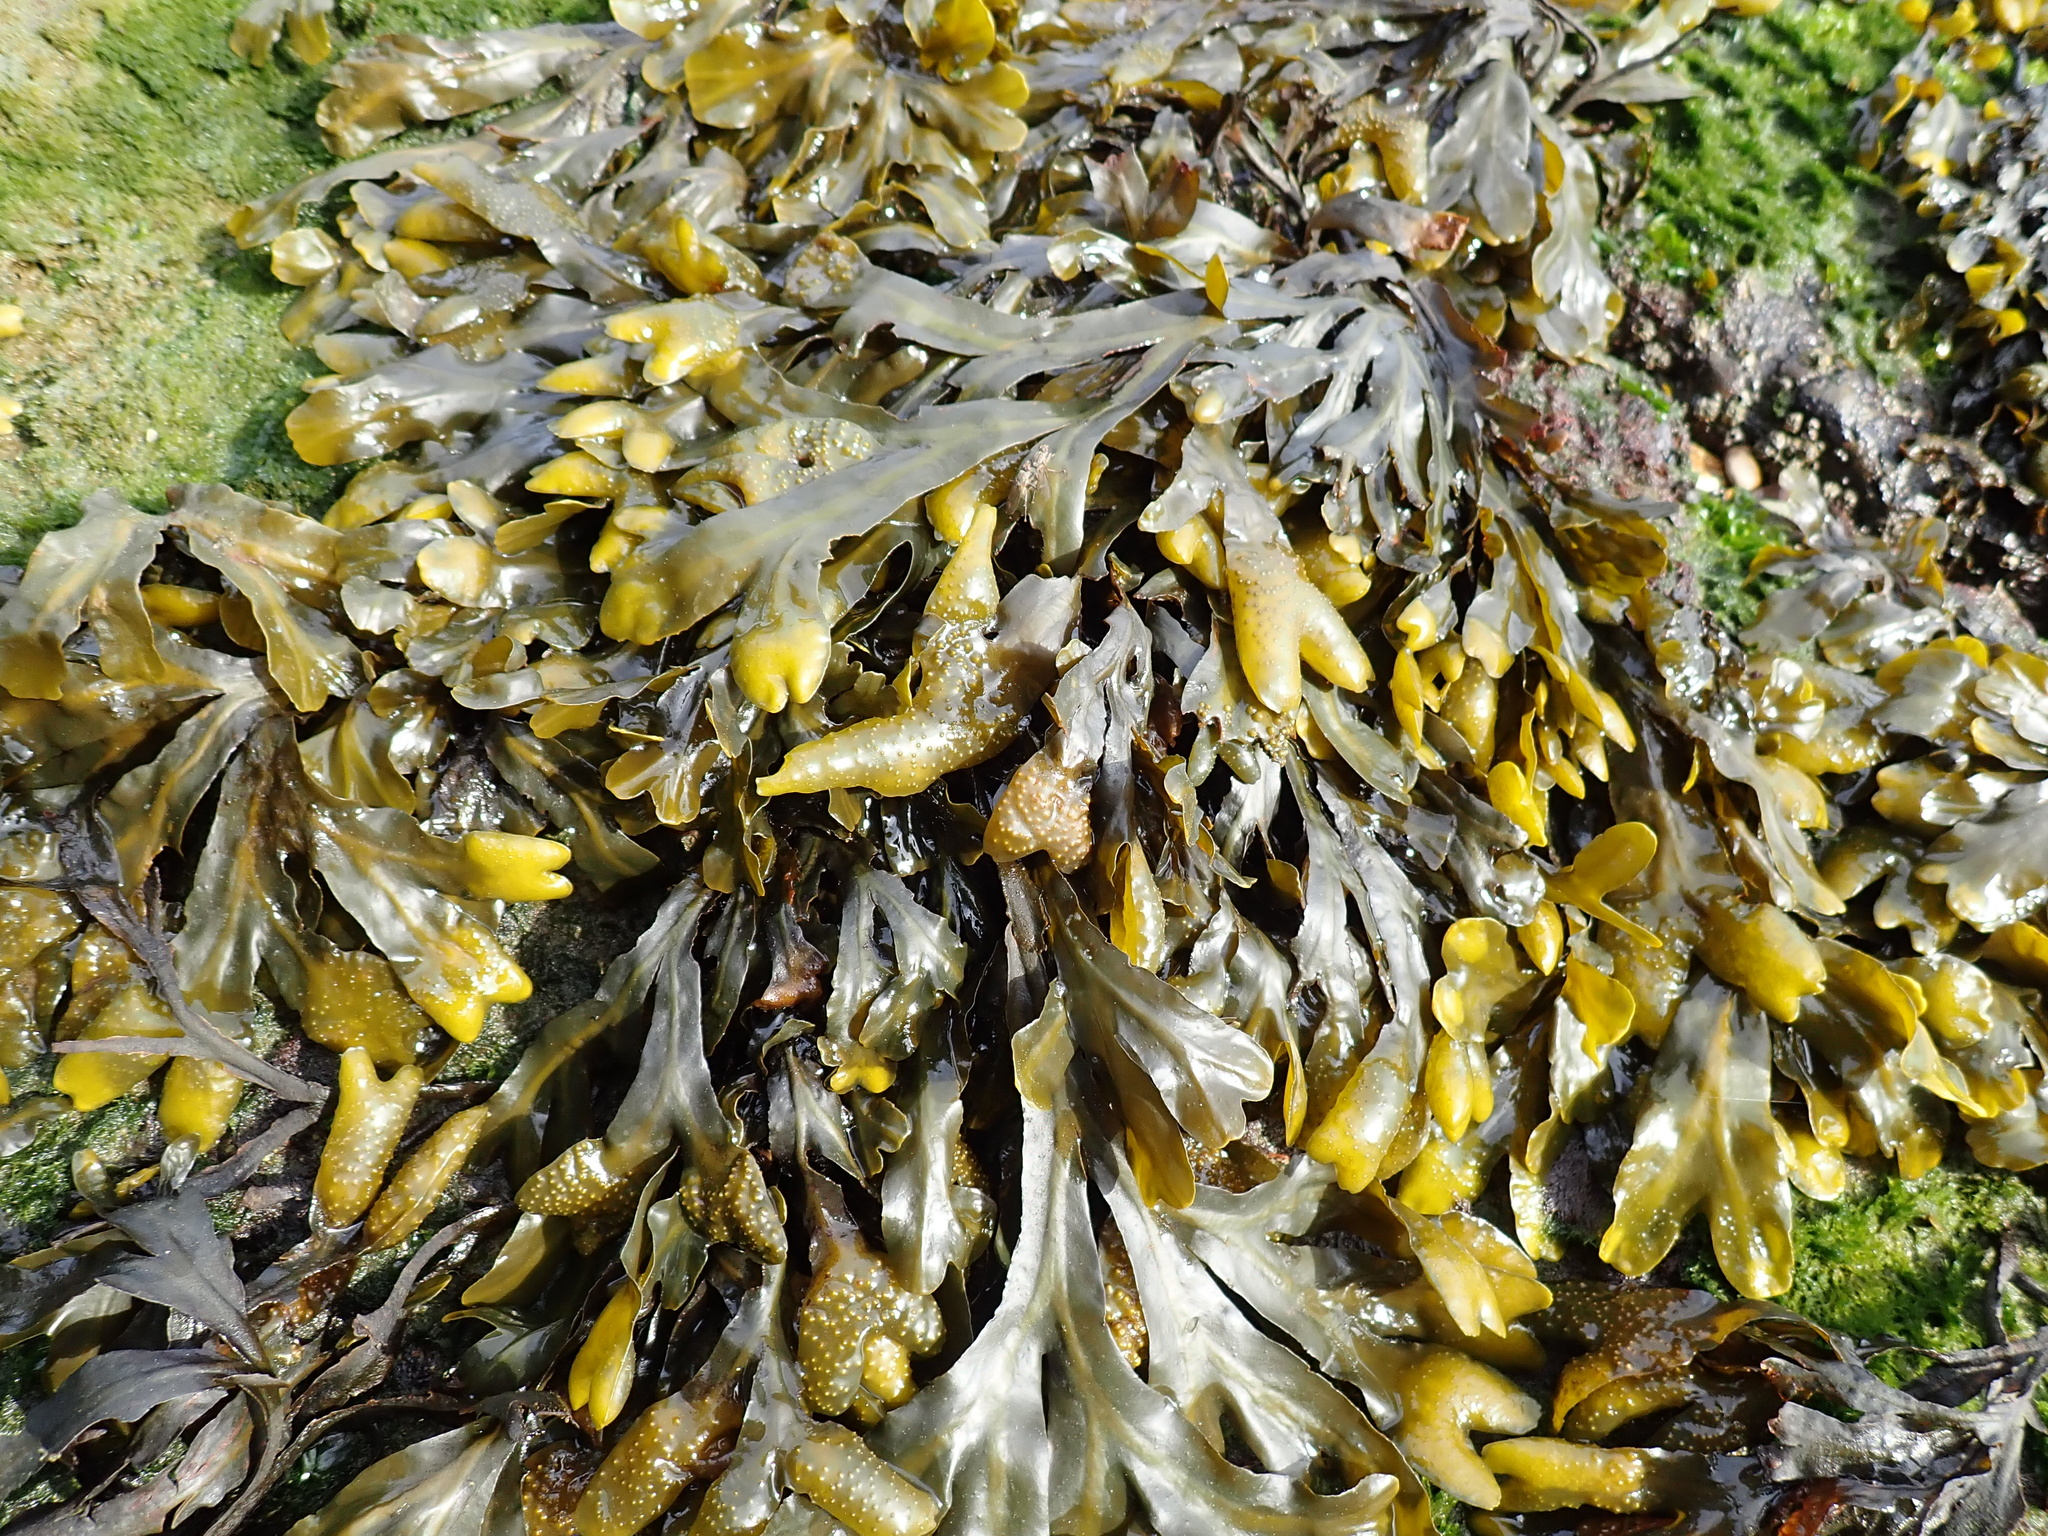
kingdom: Chromista
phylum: Ochrophyta
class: Phaeophyceae
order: Fucales
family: Fucaceae
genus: Fucus
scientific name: Fucus distichus
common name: Rockweed
